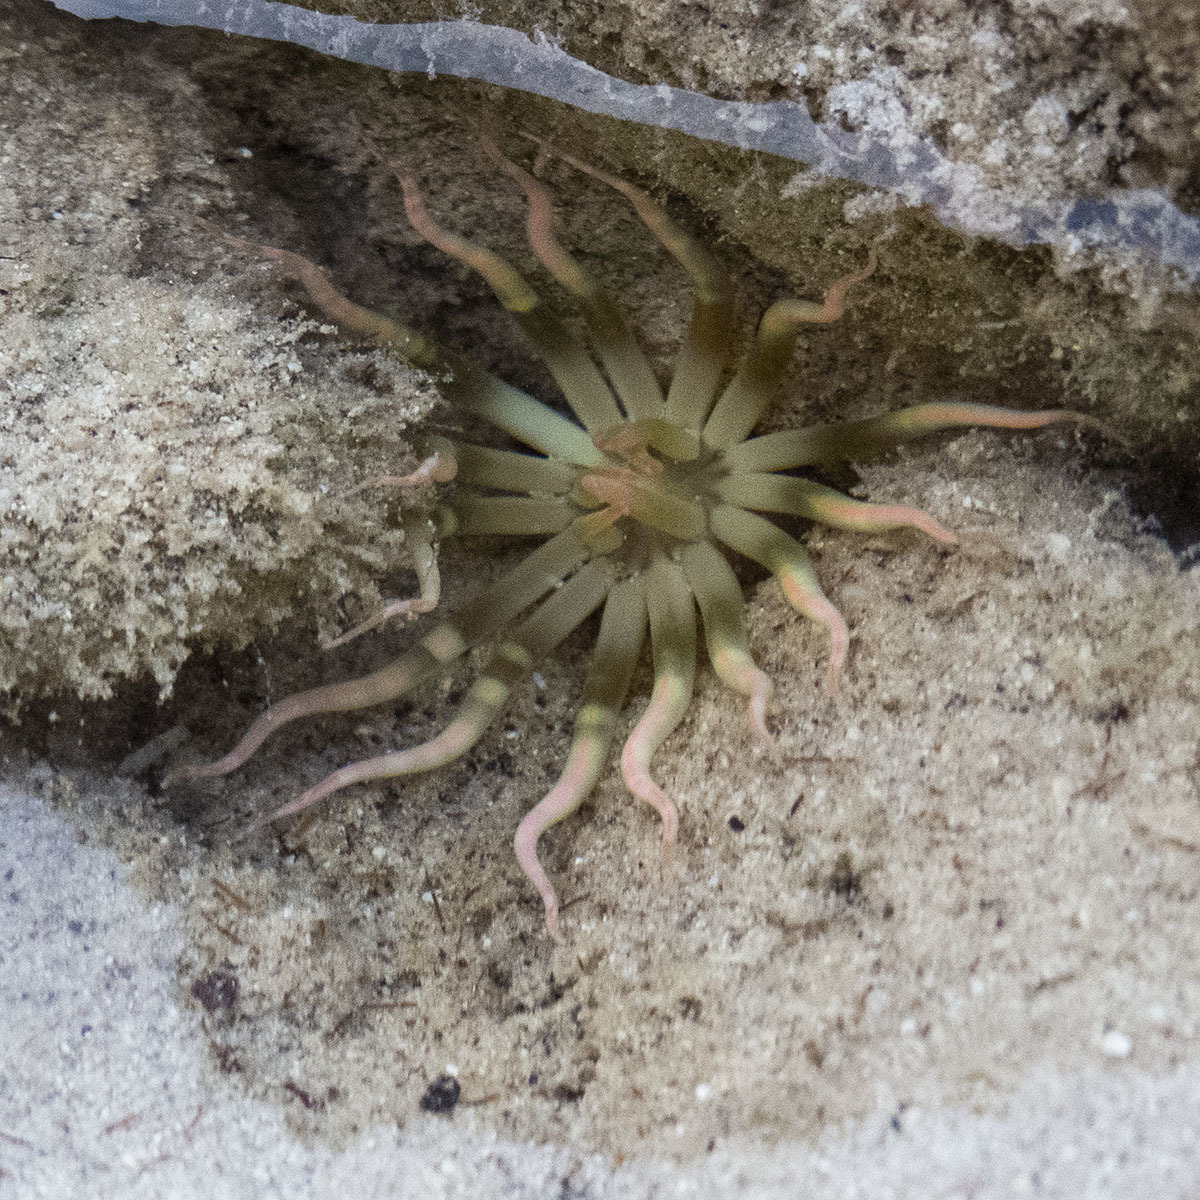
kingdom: Animalia
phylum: Cnidaria
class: Anthozoa
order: Actiniaria
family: Edwardsiidae
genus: Edwardsianthus
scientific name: Edwardsianthus pudicus
